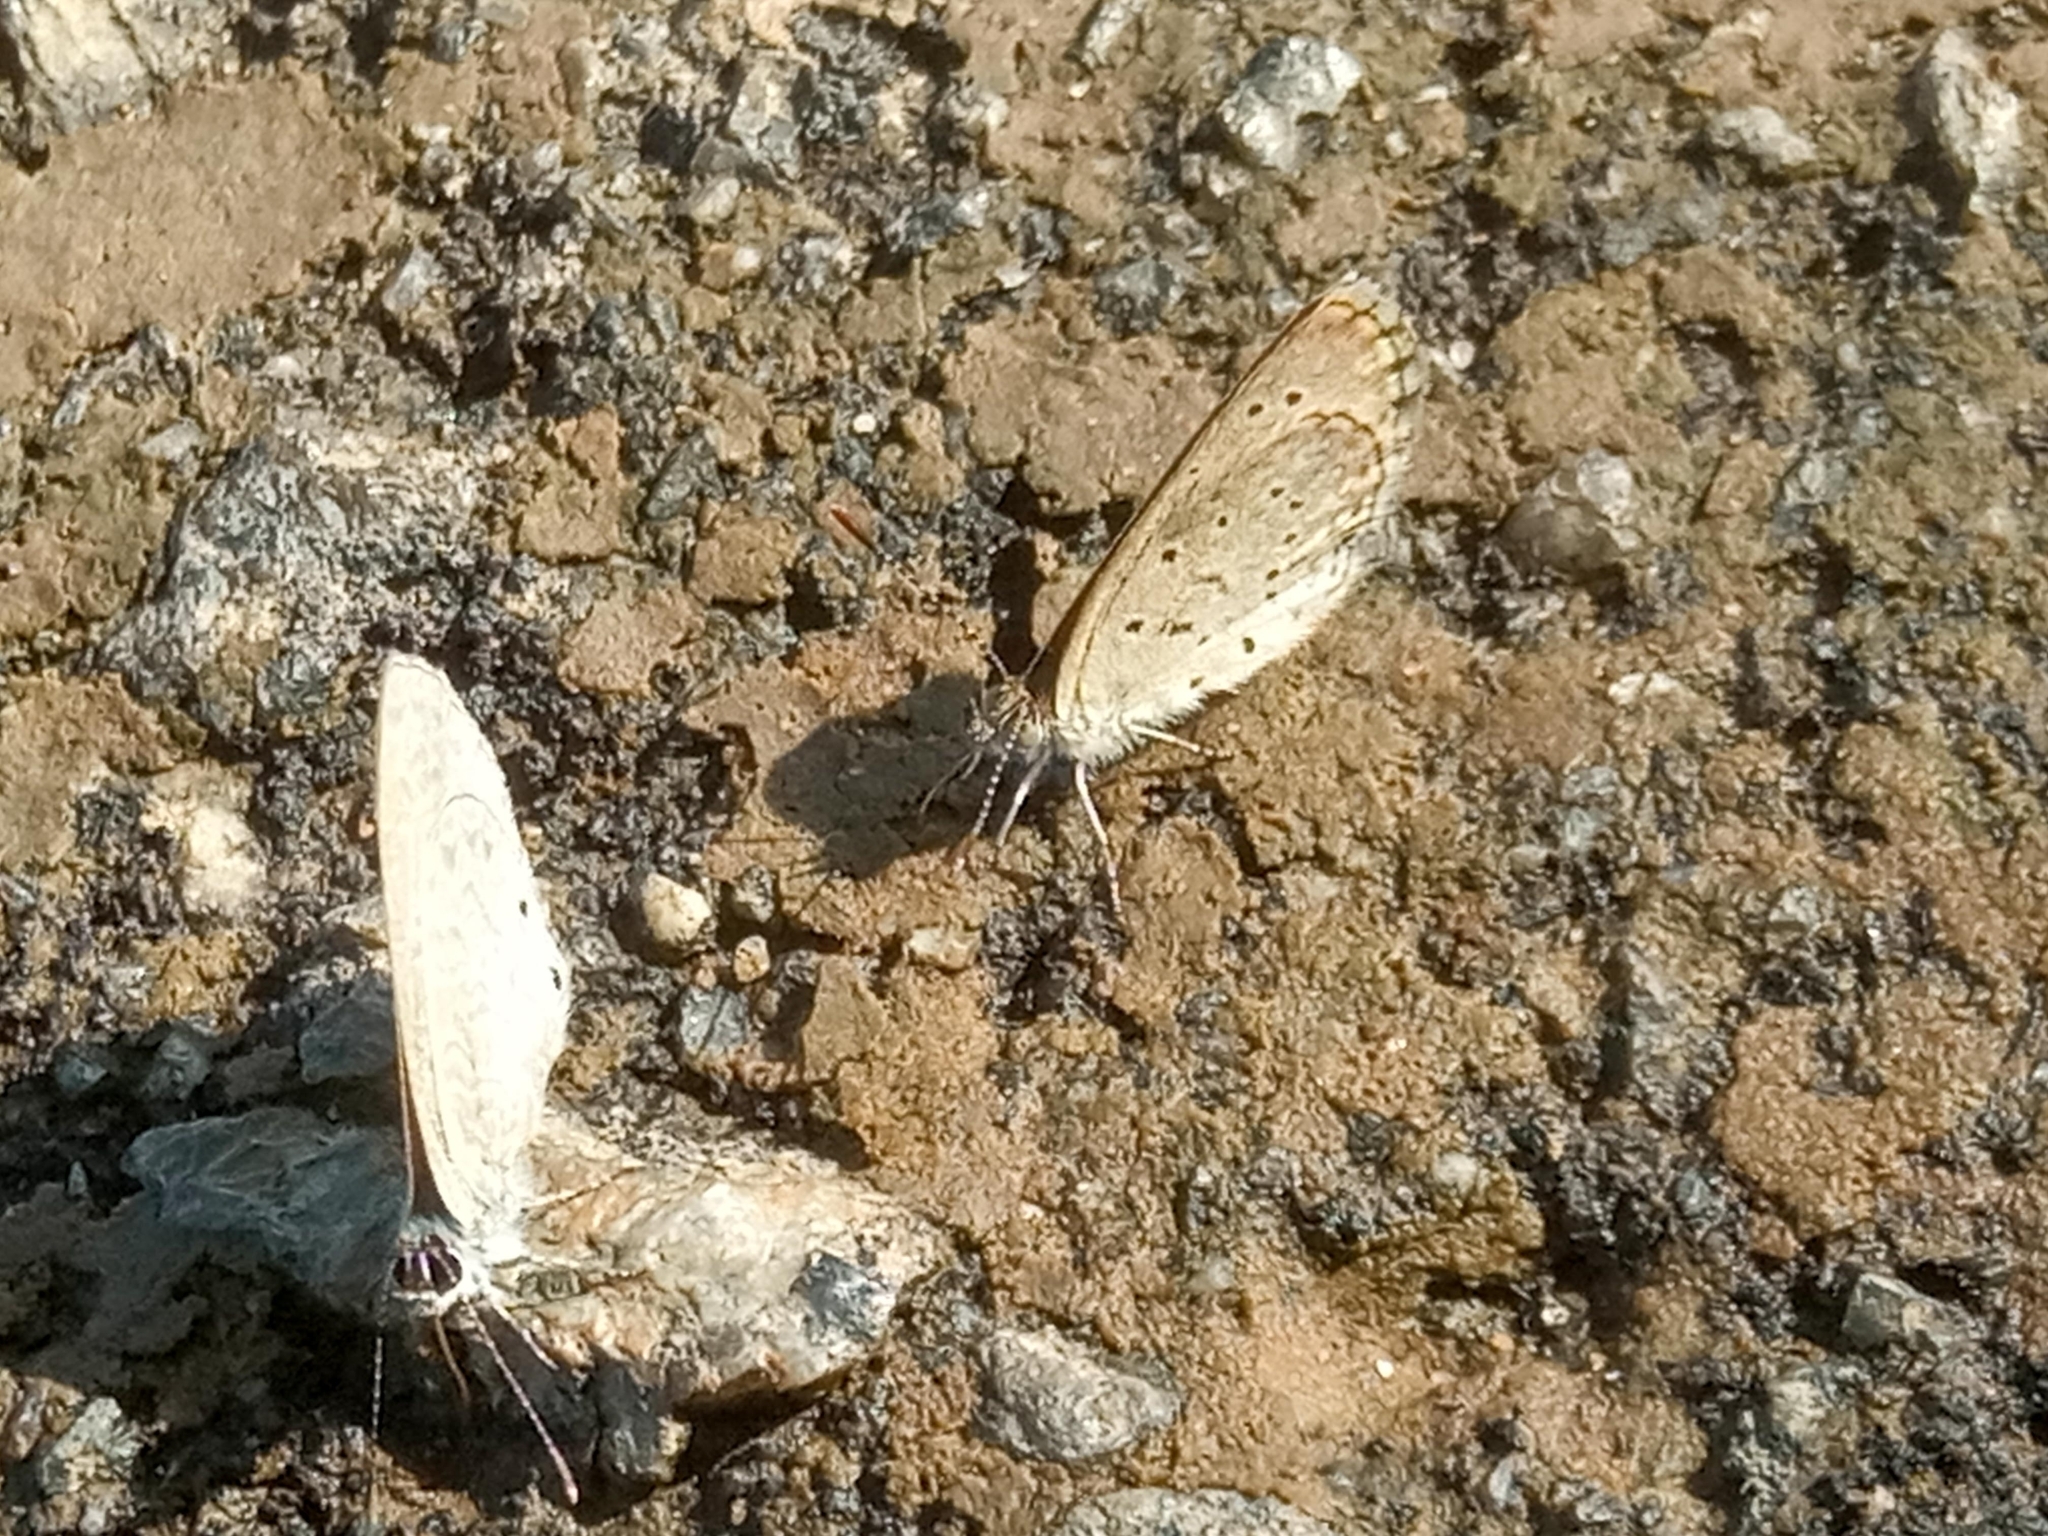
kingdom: Animalia
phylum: Arthropoda
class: Insecta
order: Lepidoptera
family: Lycaenidae
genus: Zizeeria
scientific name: Zizeeria knysna
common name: African grass blue
